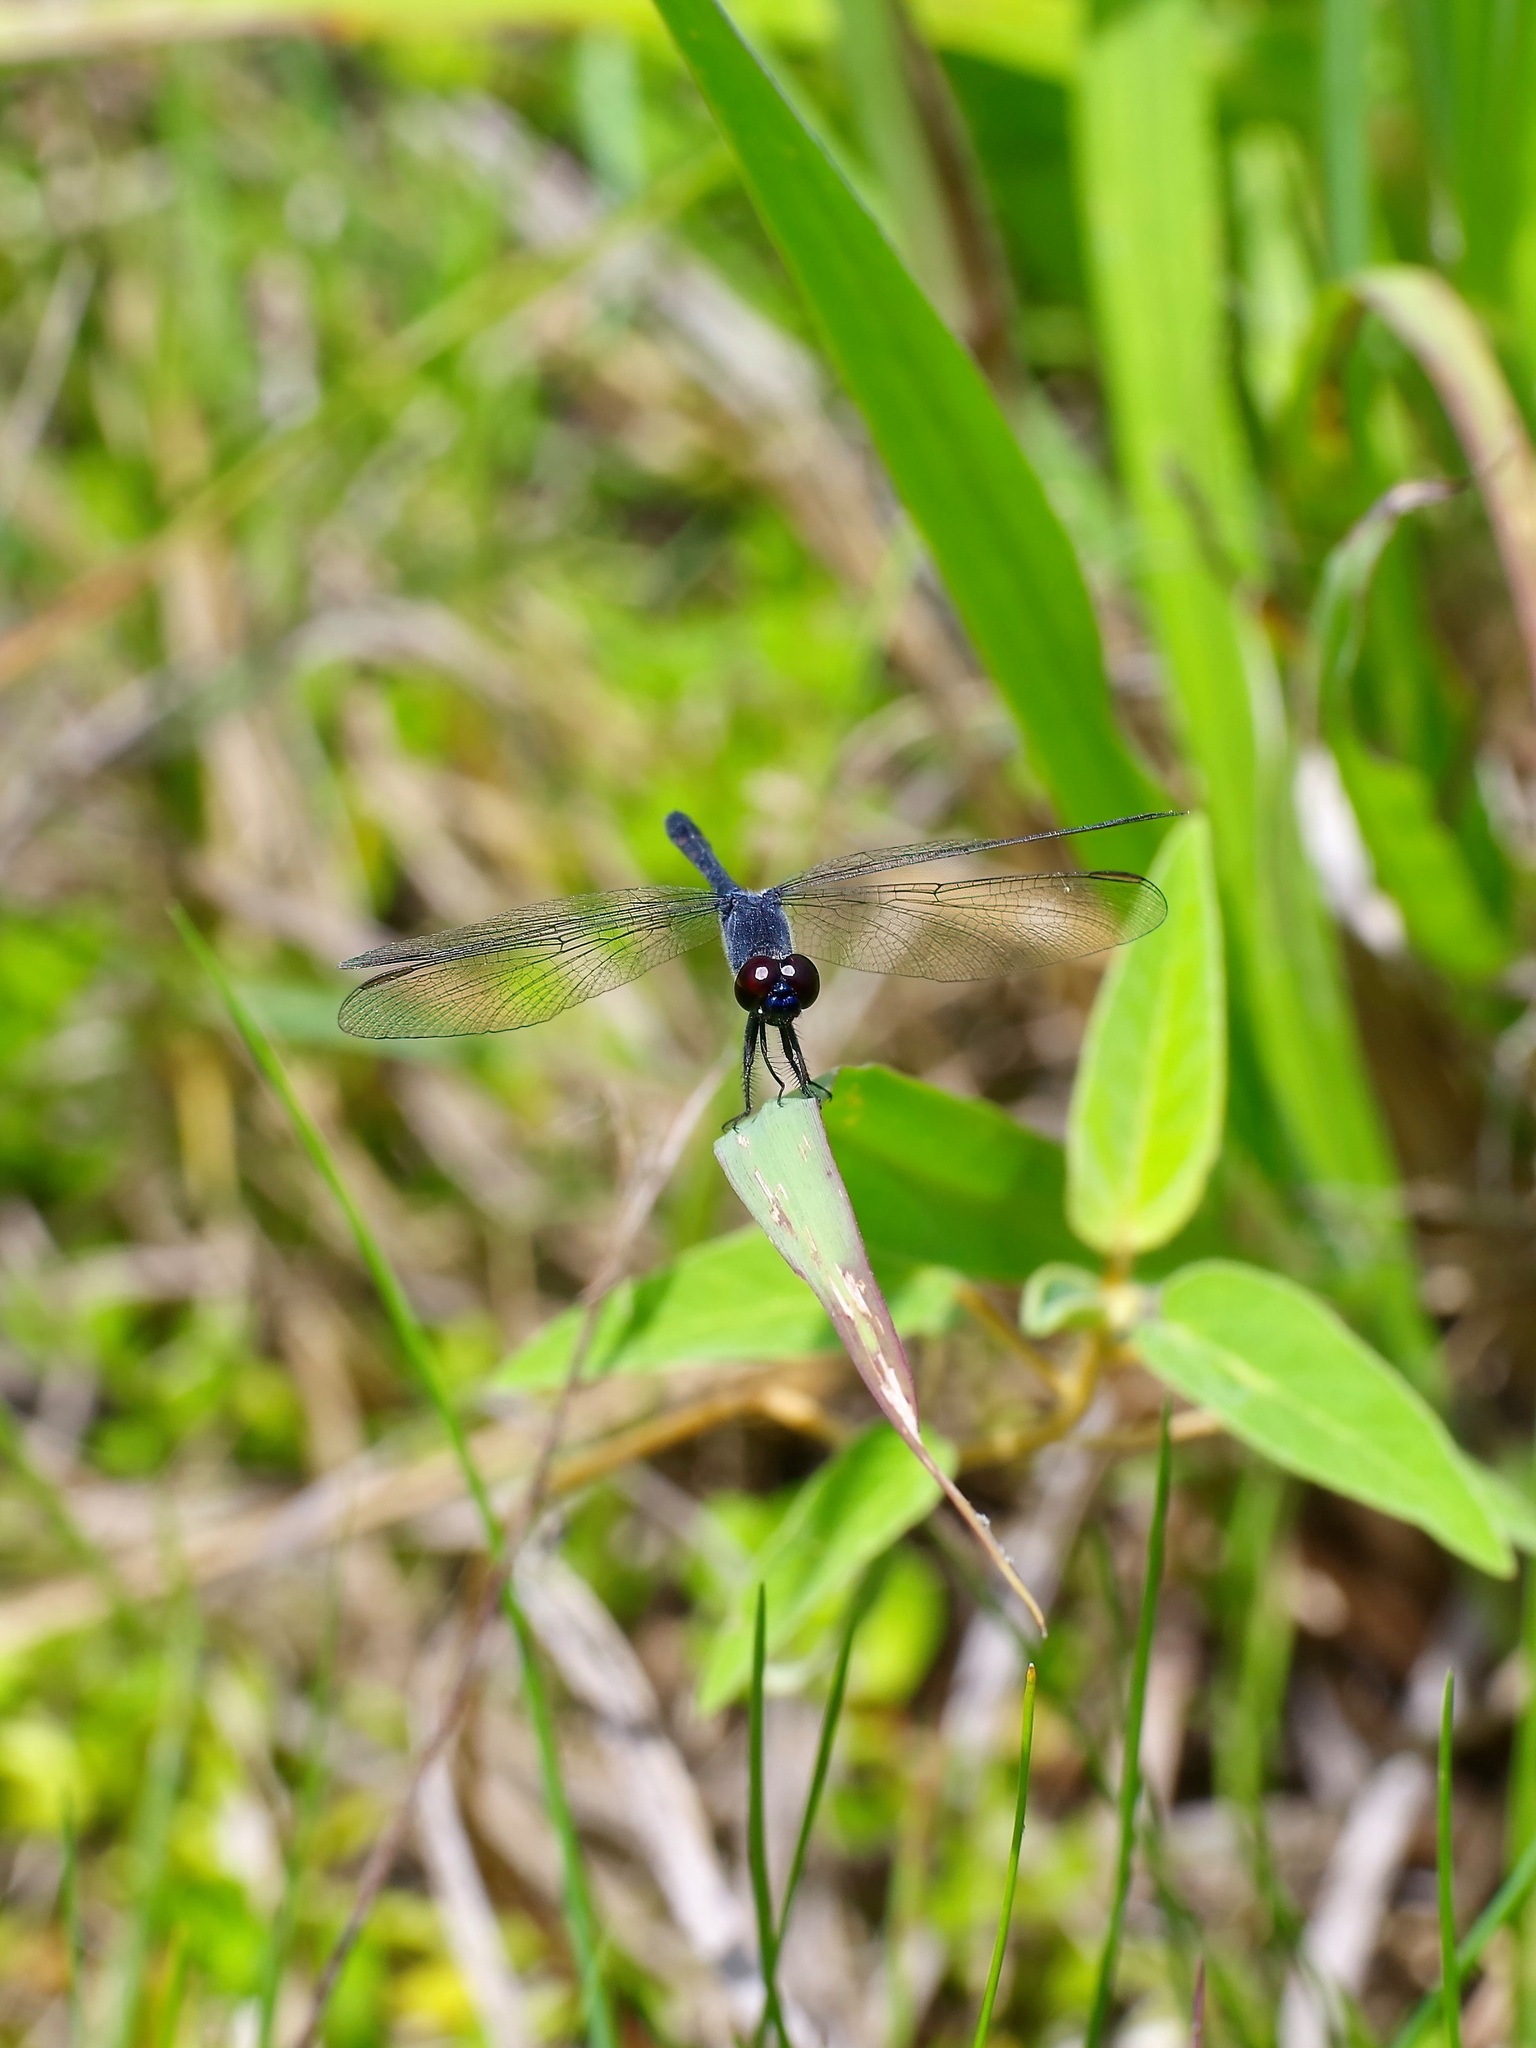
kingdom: Animalia
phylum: Arthropoda
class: Insecta
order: Odonata
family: Libellulidae
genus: Erythrodiplax
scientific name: Erythrodiplax berenice
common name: Seaside dragonlet
